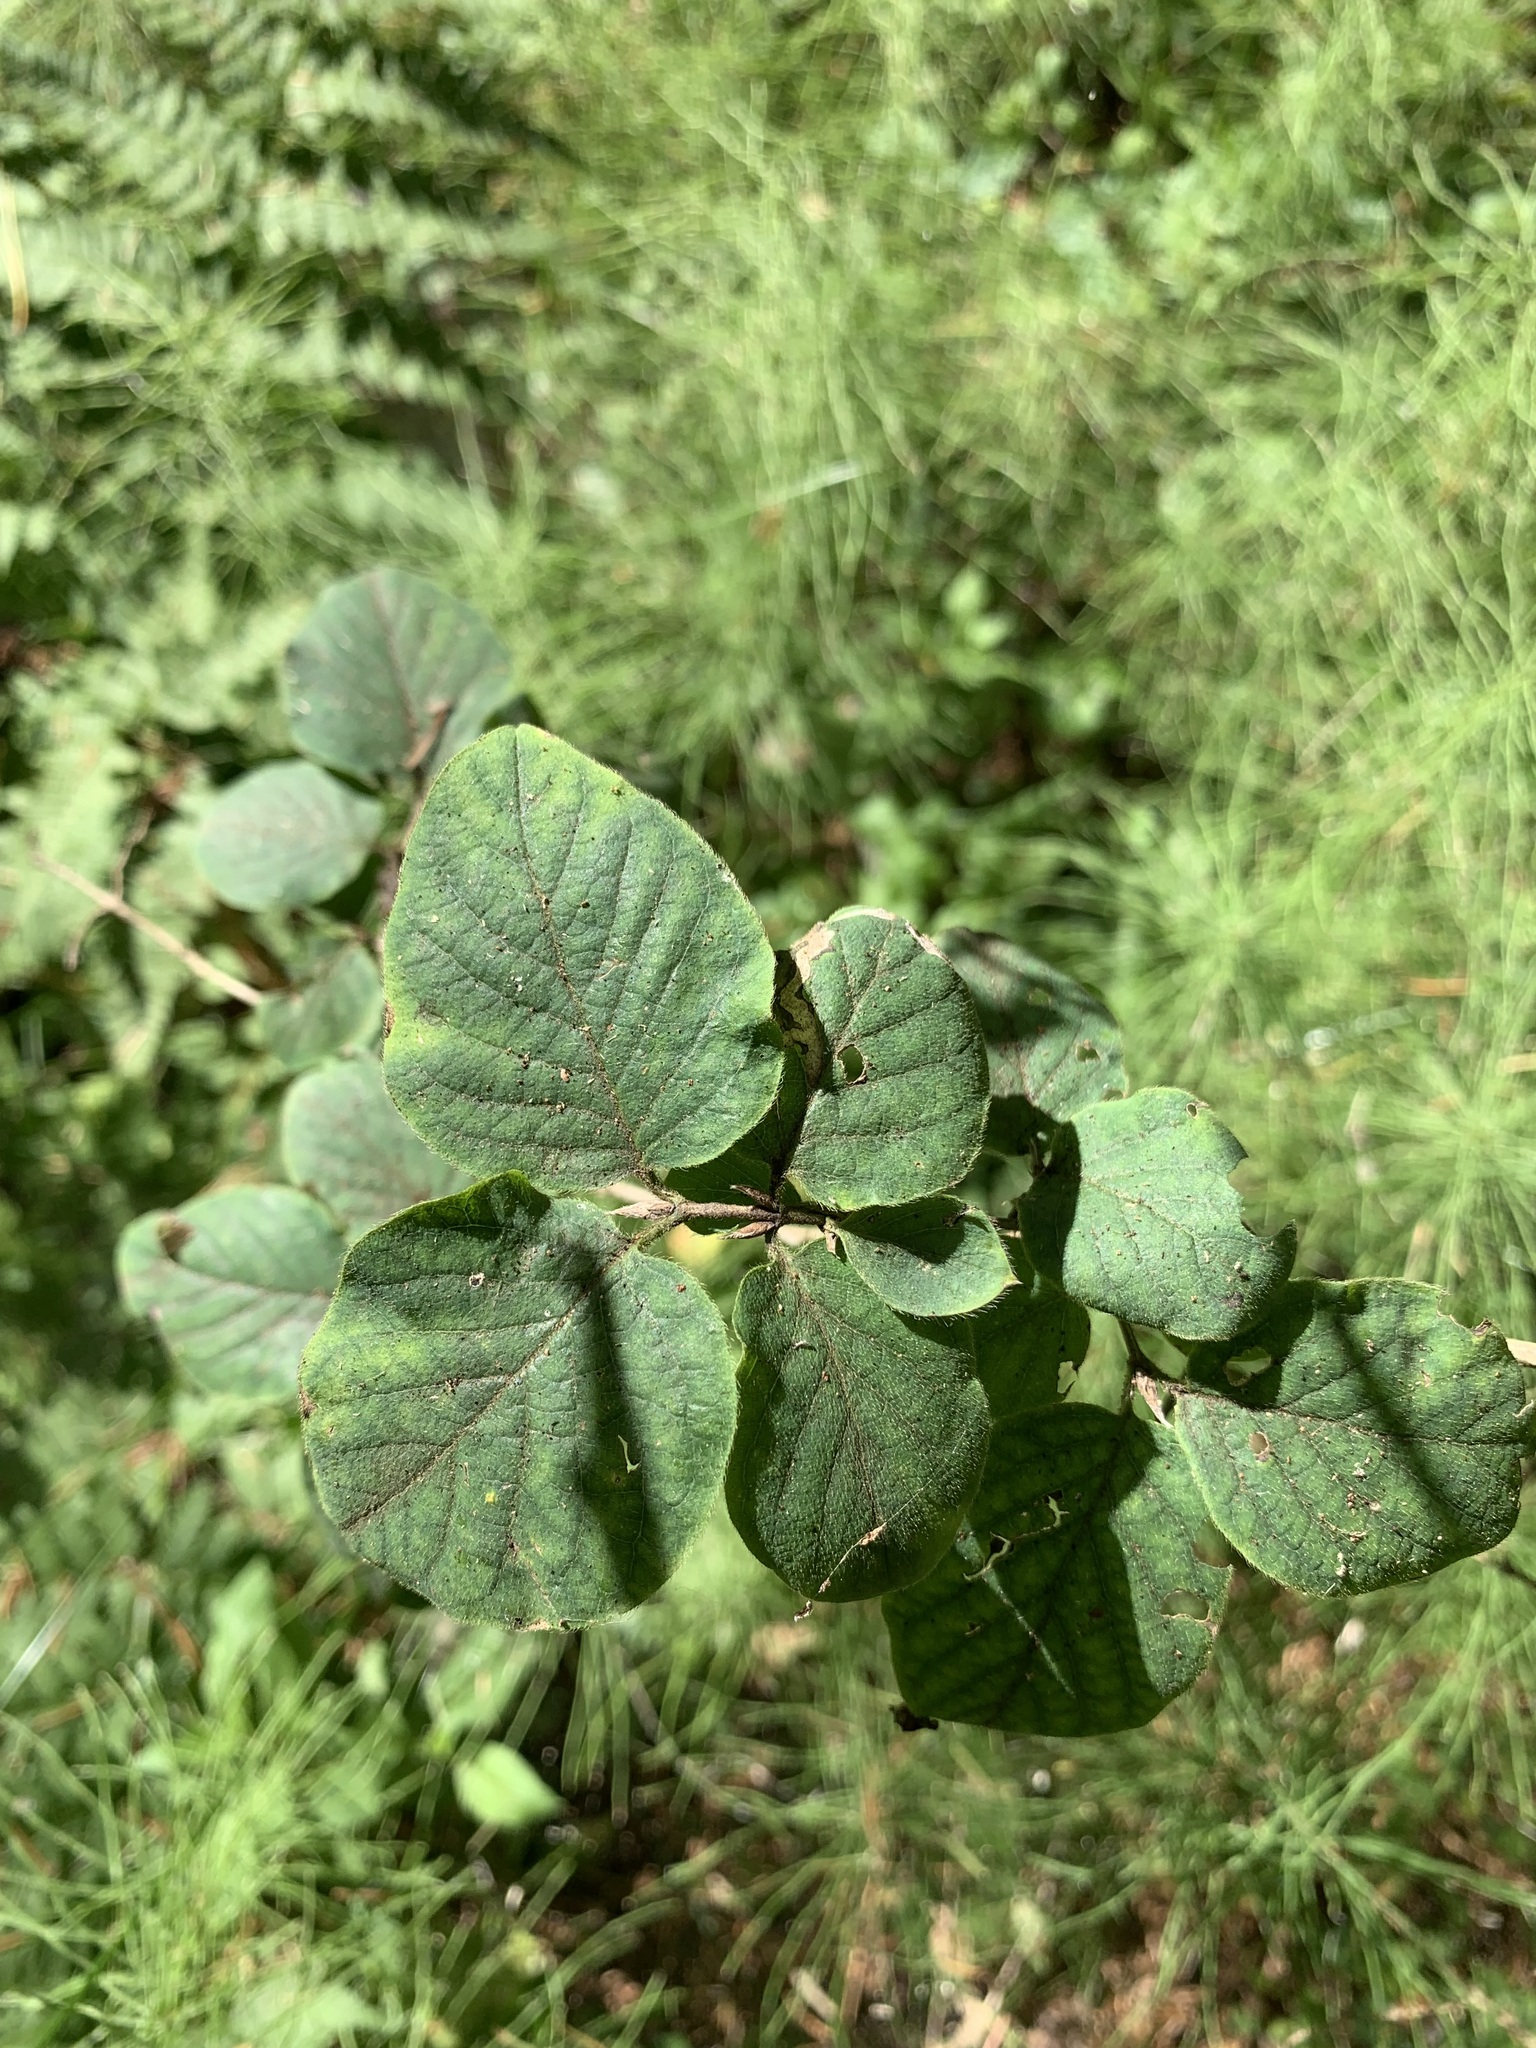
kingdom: Plantae
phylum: Tracheophyta
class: Magnoliopsida
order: Dipsacales
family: Caprifoliaceae
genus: Lonicera
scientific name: Lonicera xylosteum
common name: Fly honeysuckle
